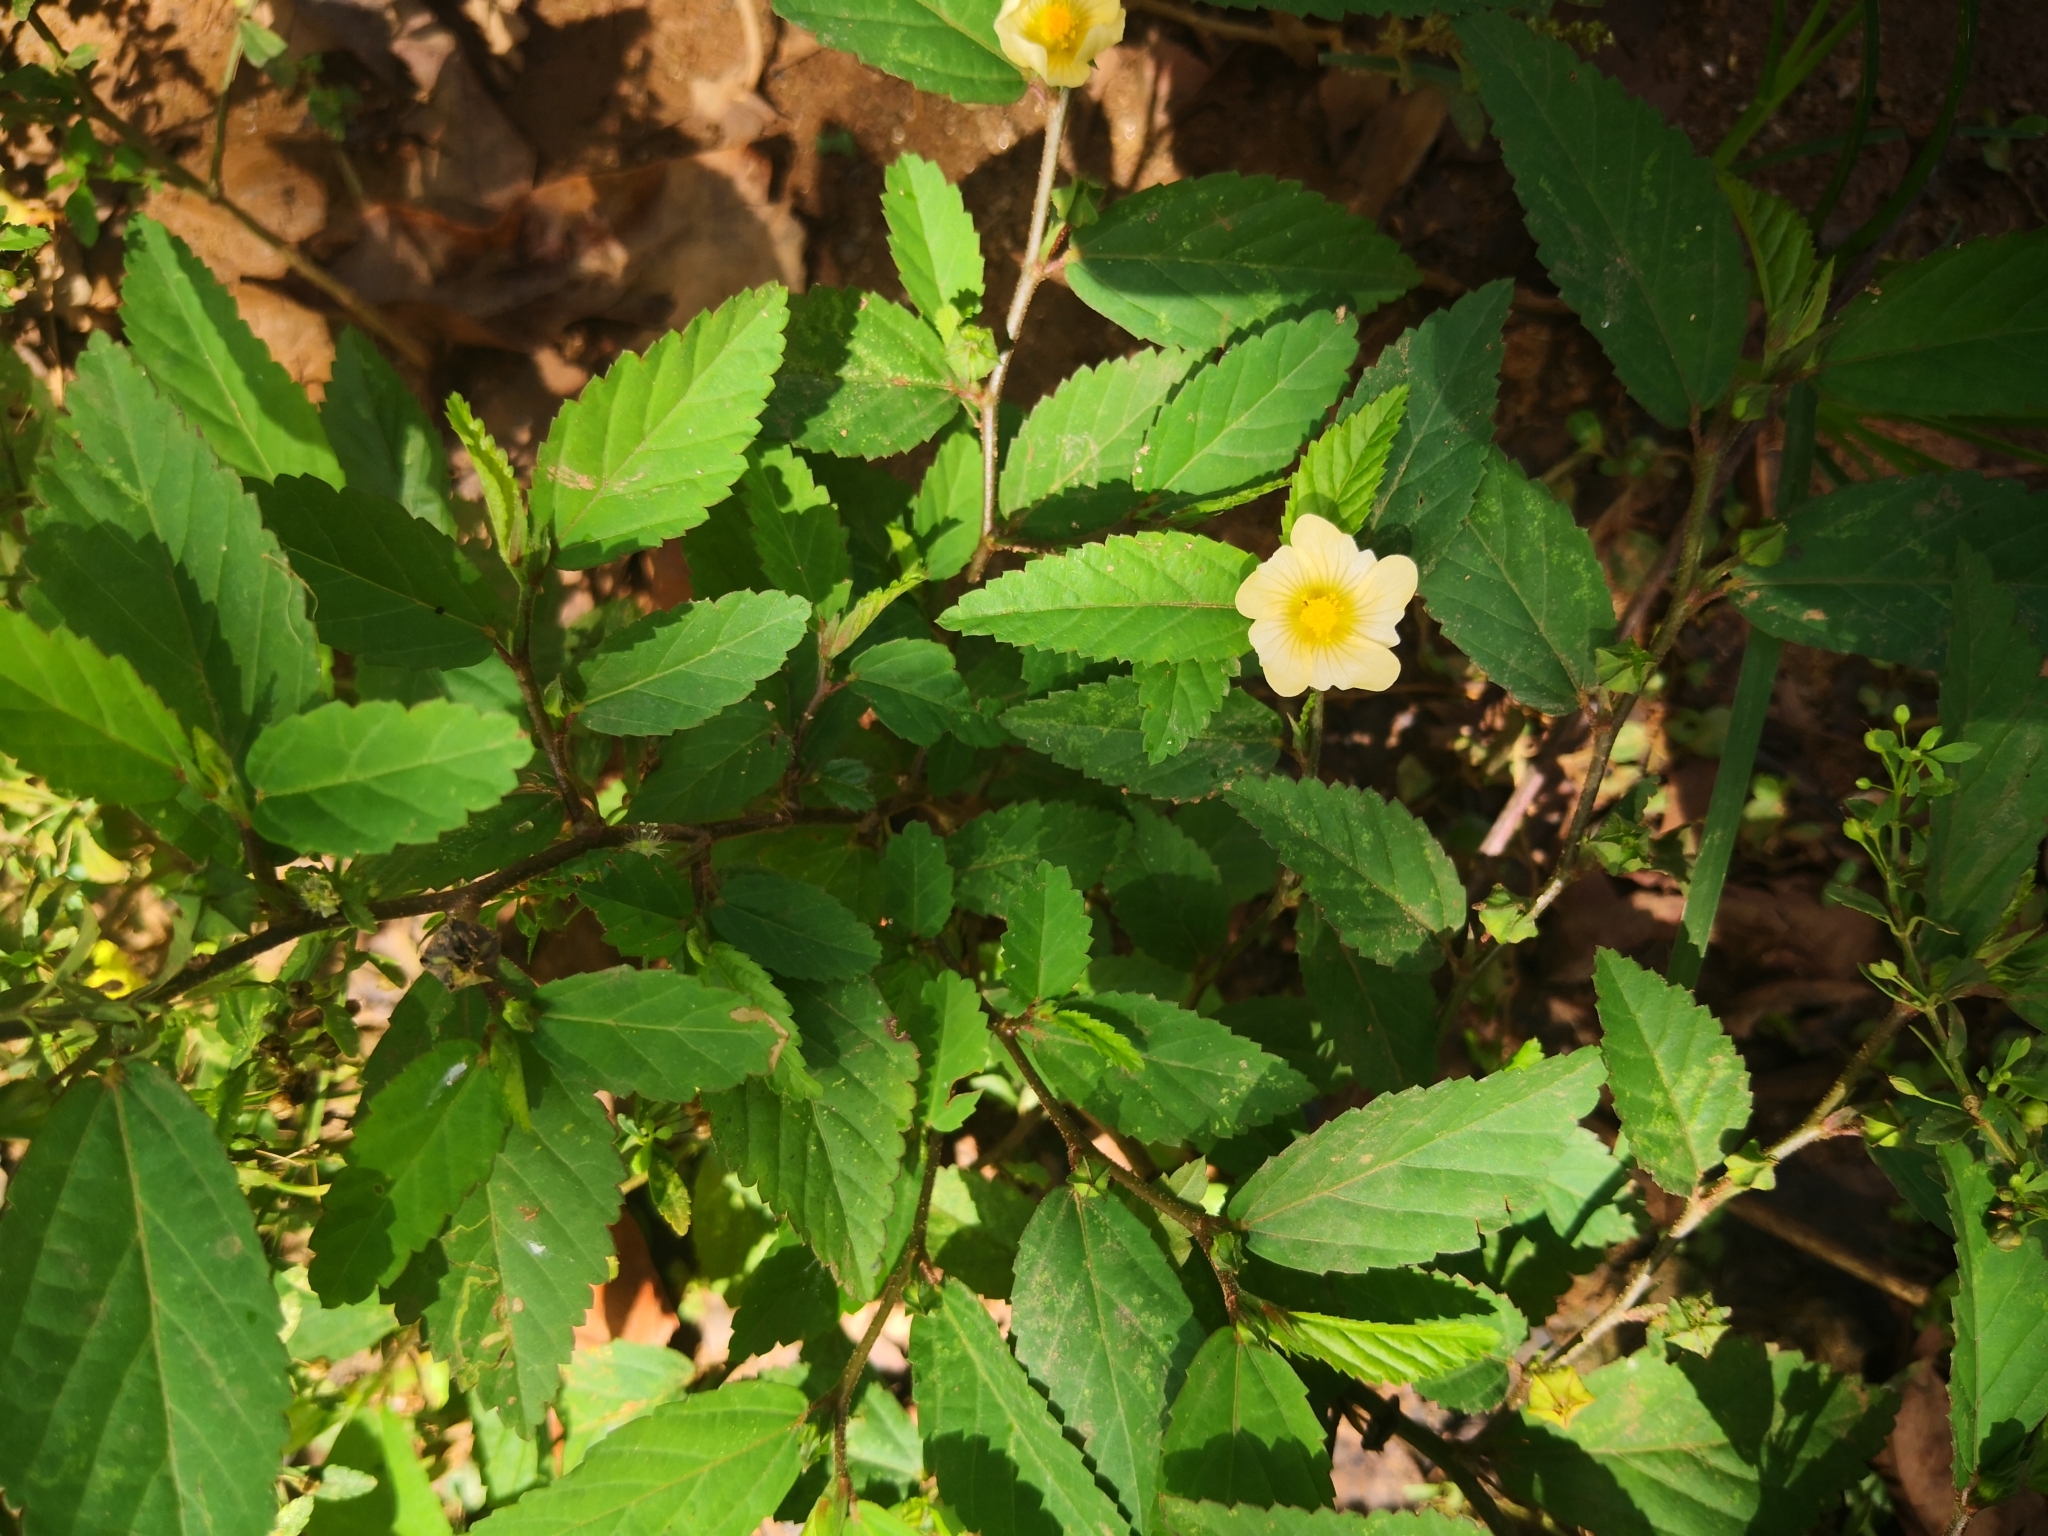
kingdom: Plantae
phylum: Tracheophyta
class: Magnoliopsida
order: Malvales
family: Malvaceae
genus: Sida
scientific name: Sida ulmifolia
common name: Broom weed
